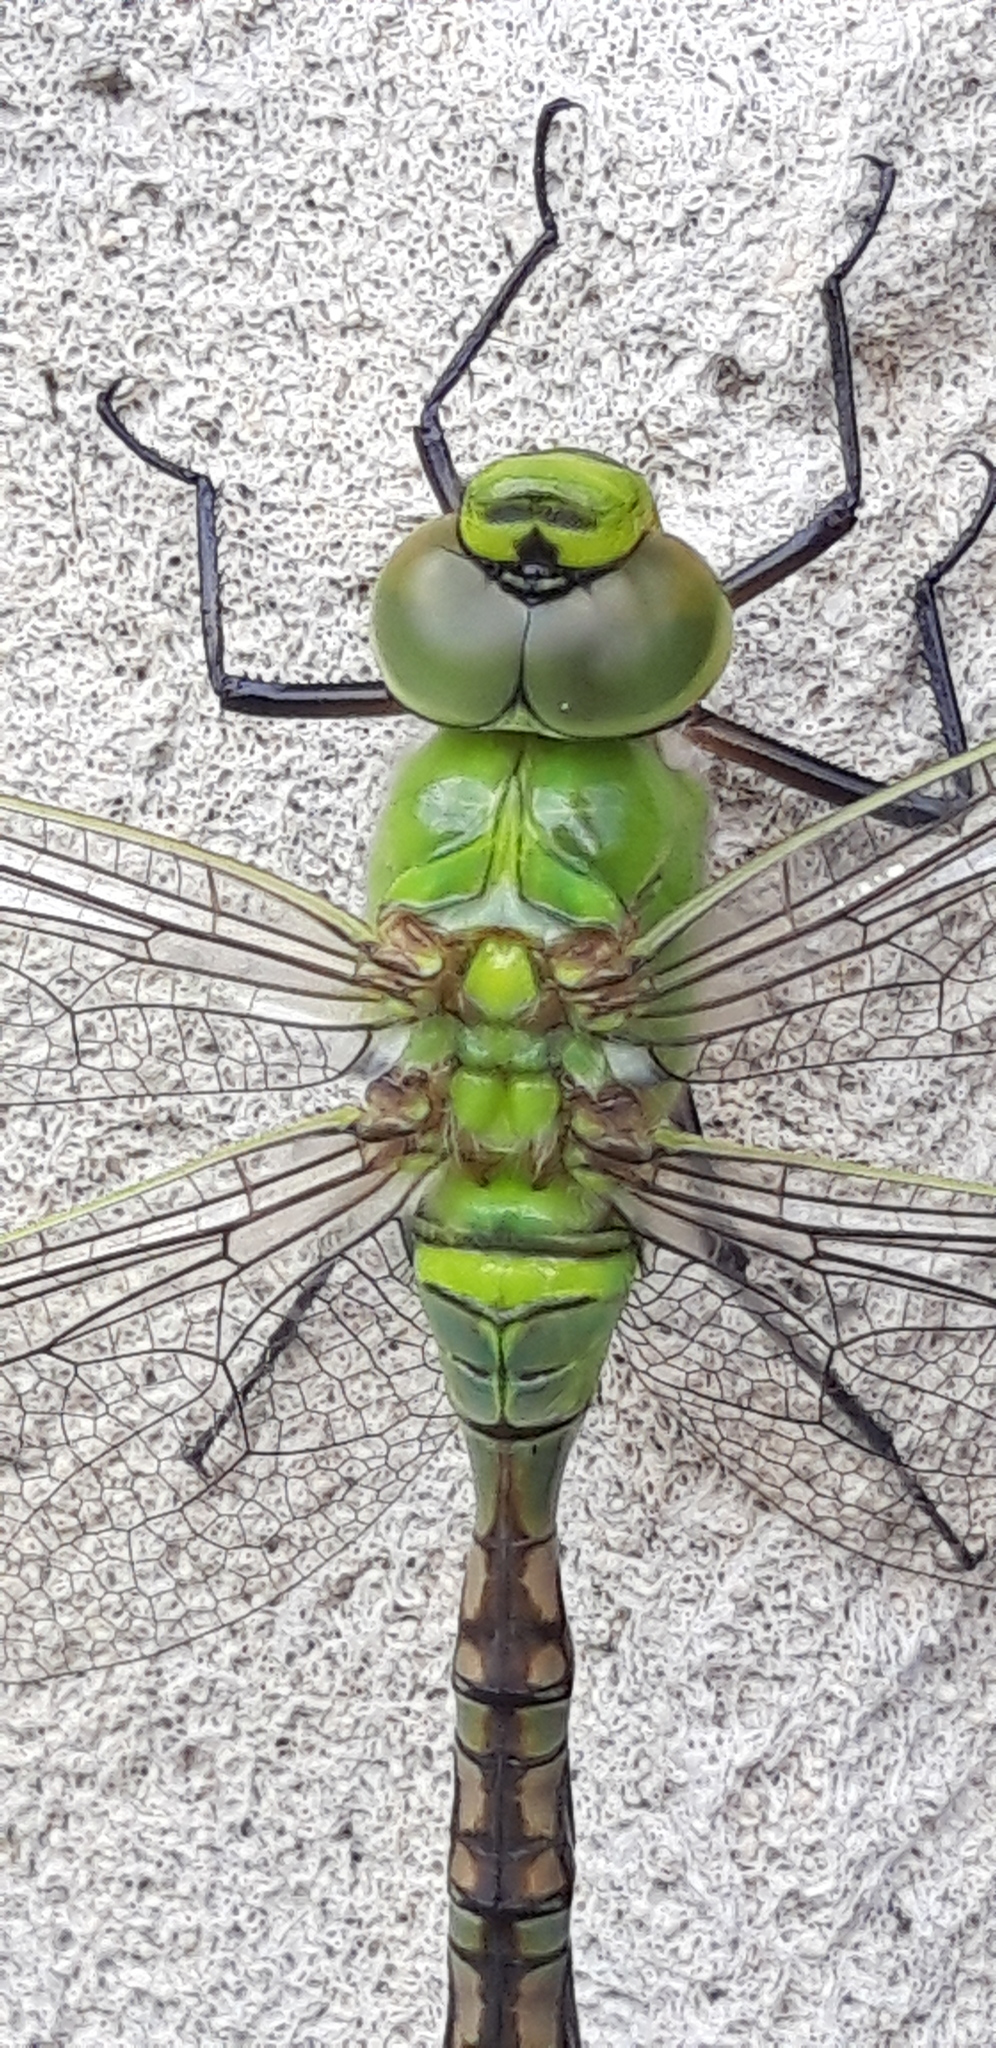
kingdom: Animalia
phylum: Arthropoda
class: Insecta
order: Odonata
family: Aeshnidae
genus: Anax
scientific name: Anax imperator
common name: Emperor dragonfly
